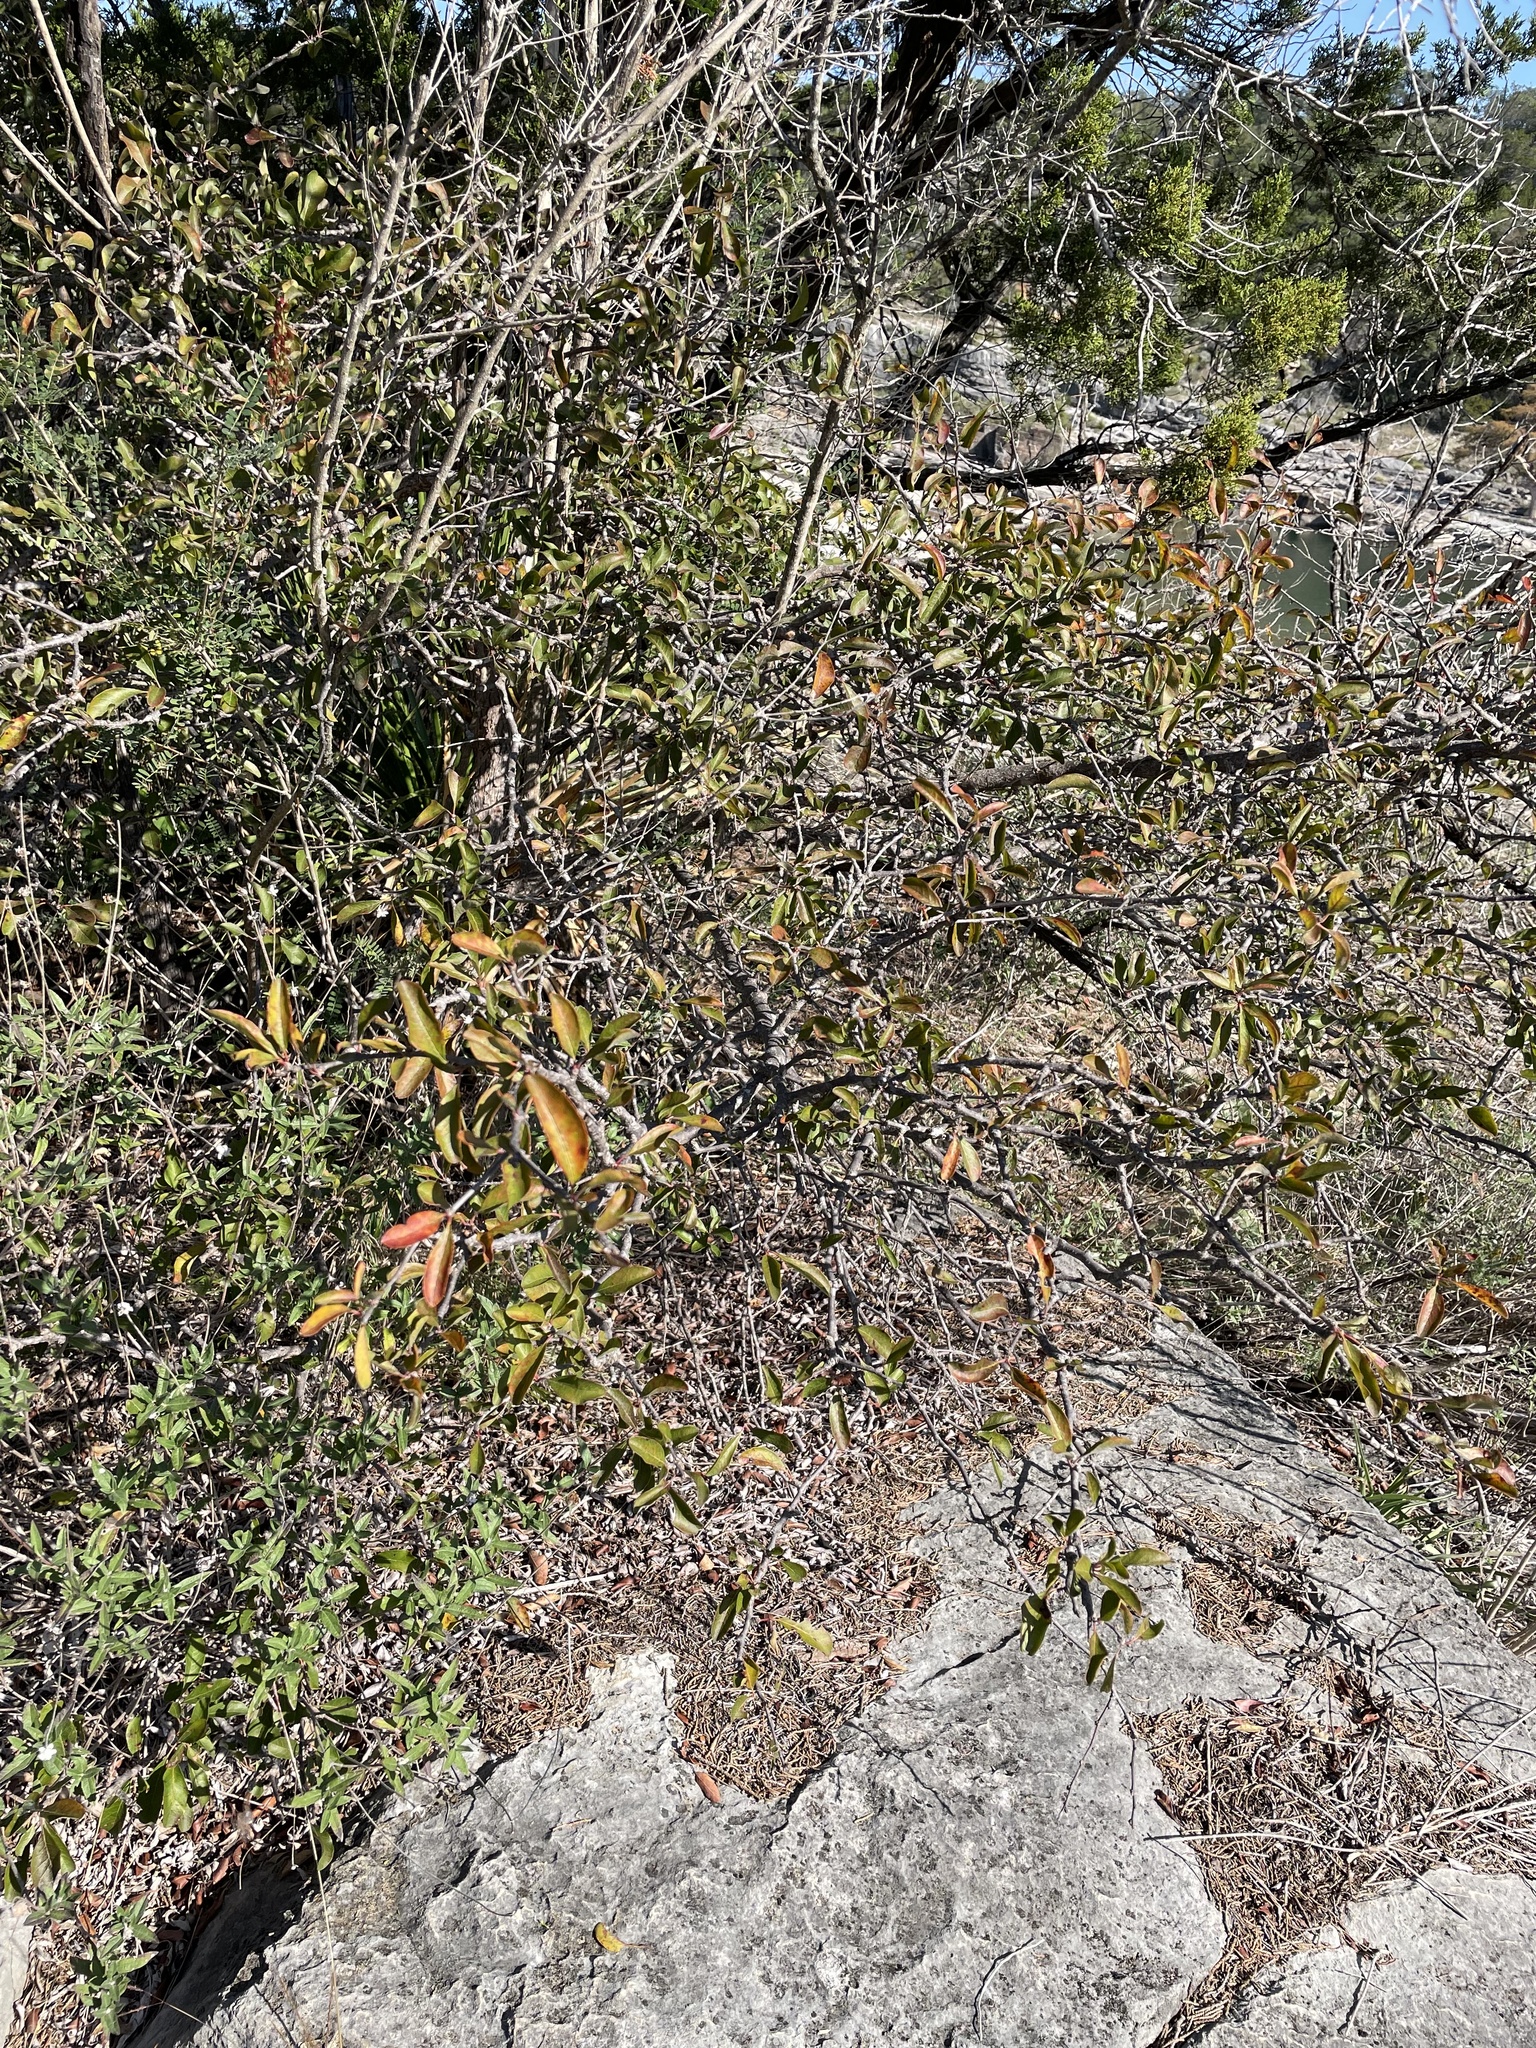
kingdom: Plantae
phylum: Tracheophyta
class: Magnoliopsida
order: Ericales
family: Sapotaceae
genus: Sideroxylon
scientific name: Sideroxylon lanuginosum
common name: Chittamwood
